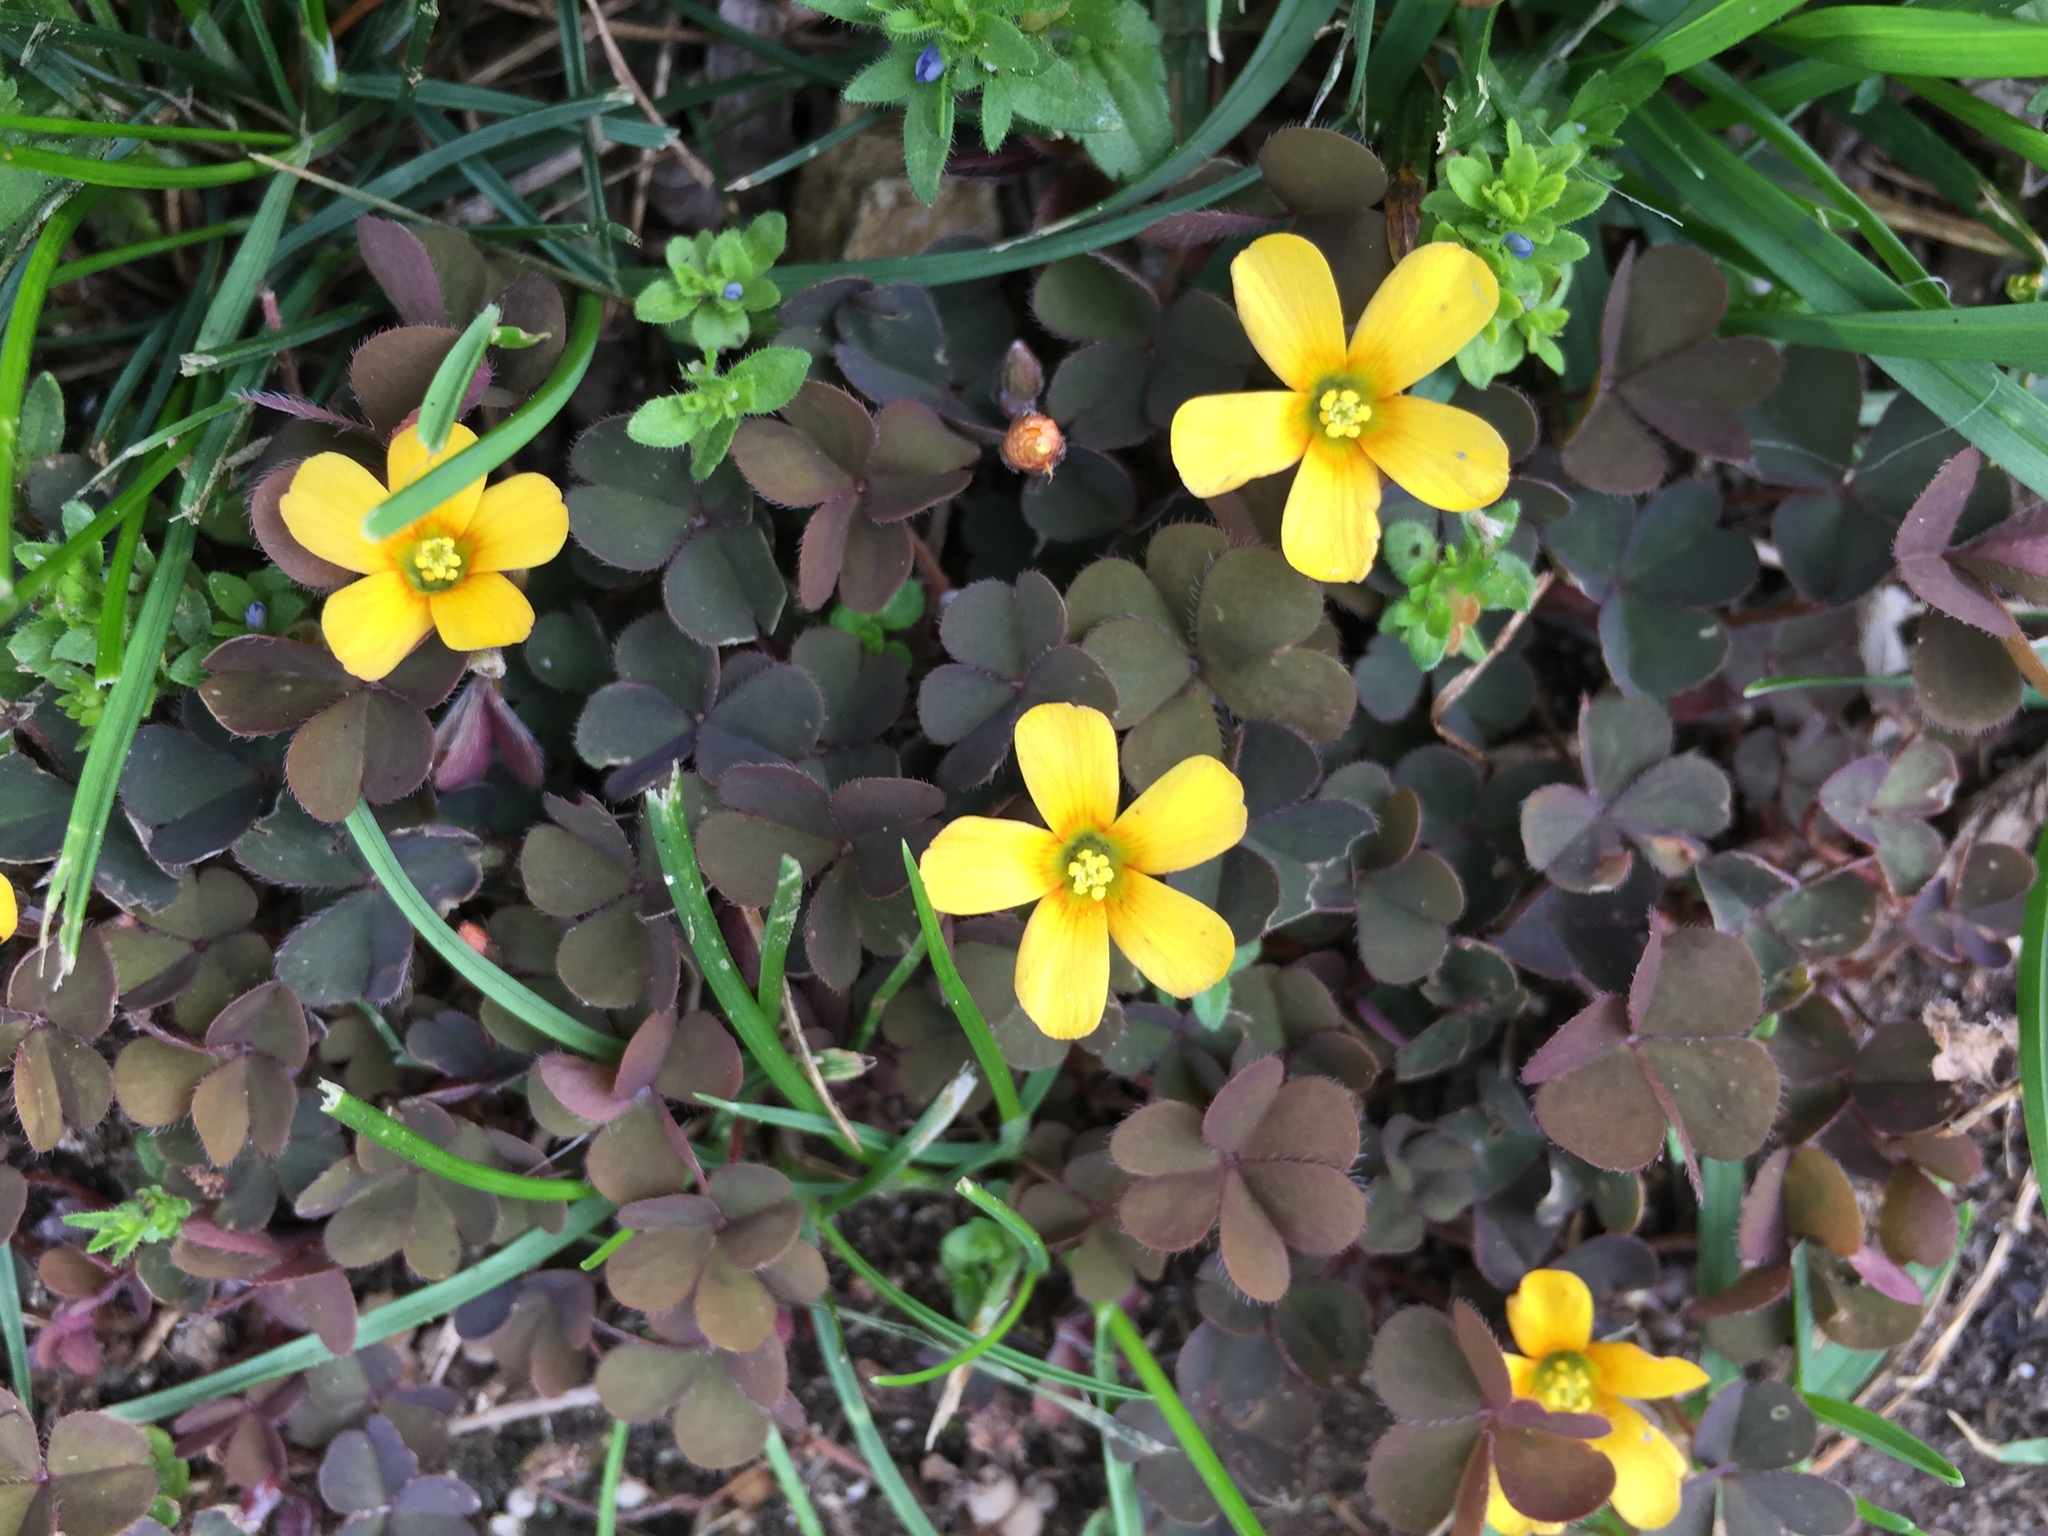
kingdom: Plantae
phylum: Tracheophyta
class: Magnoliopsida
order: Oxalidales
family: Oxalidaceae
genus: Oxalis
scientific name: Oxalis corniculata
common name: Procumbent yellow-sorrel
